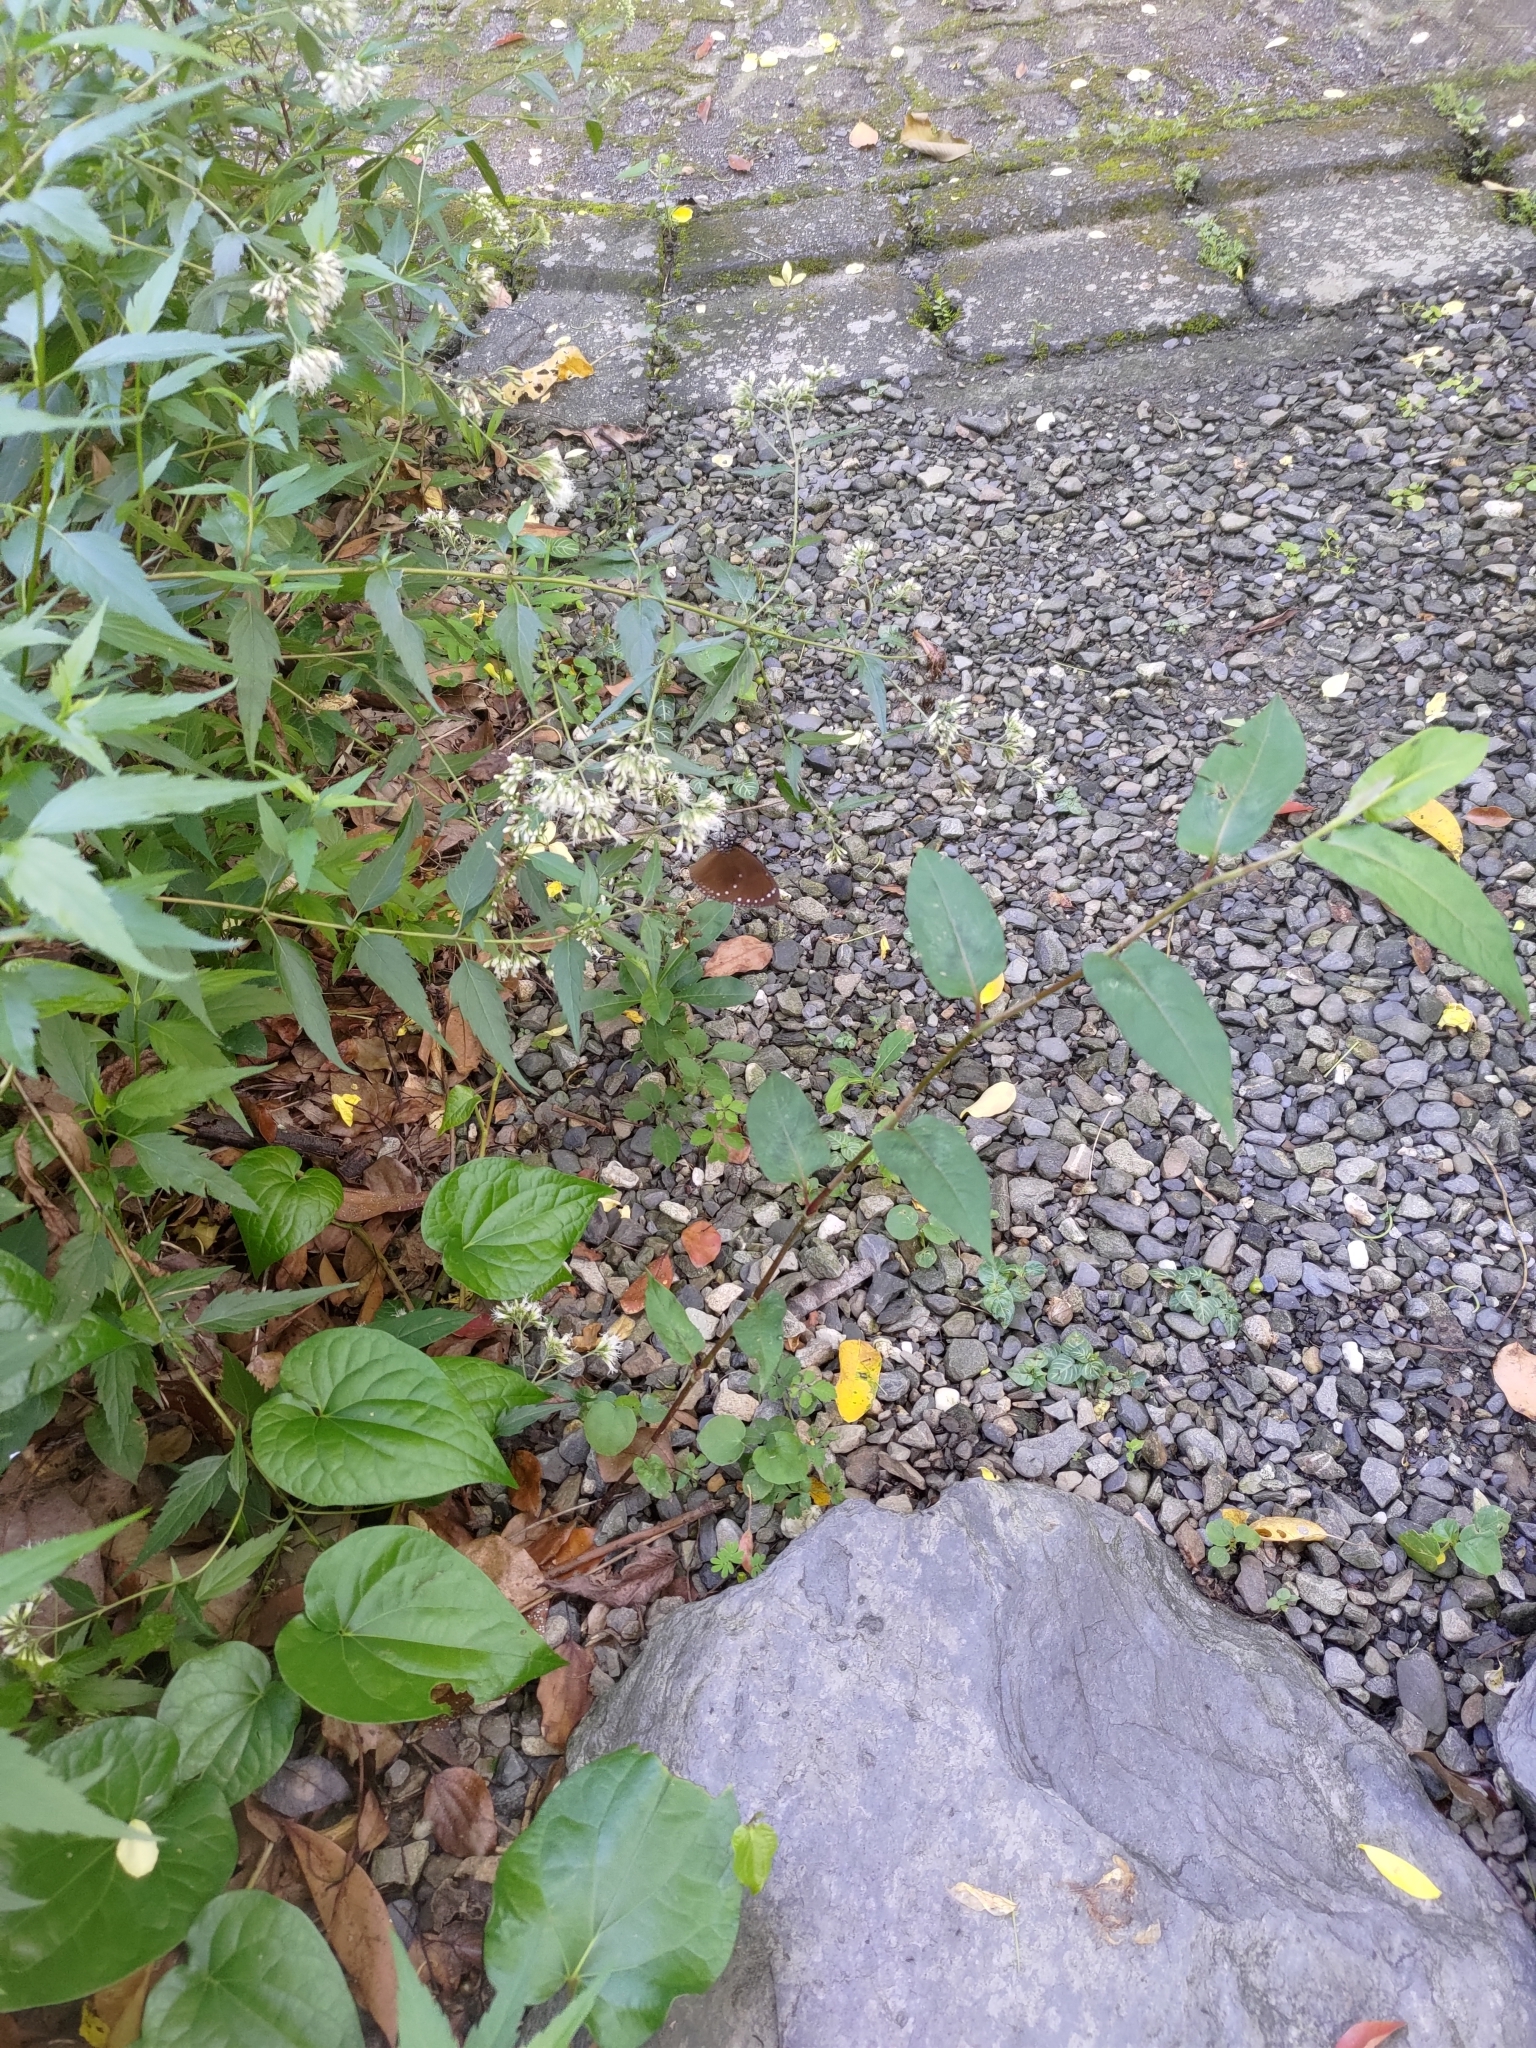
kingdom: Animalia
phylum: Arthropoda
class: Insecta
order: Lepidoptera
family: Nymphalidae
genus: Euploea
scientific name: Euploea tulliolus
